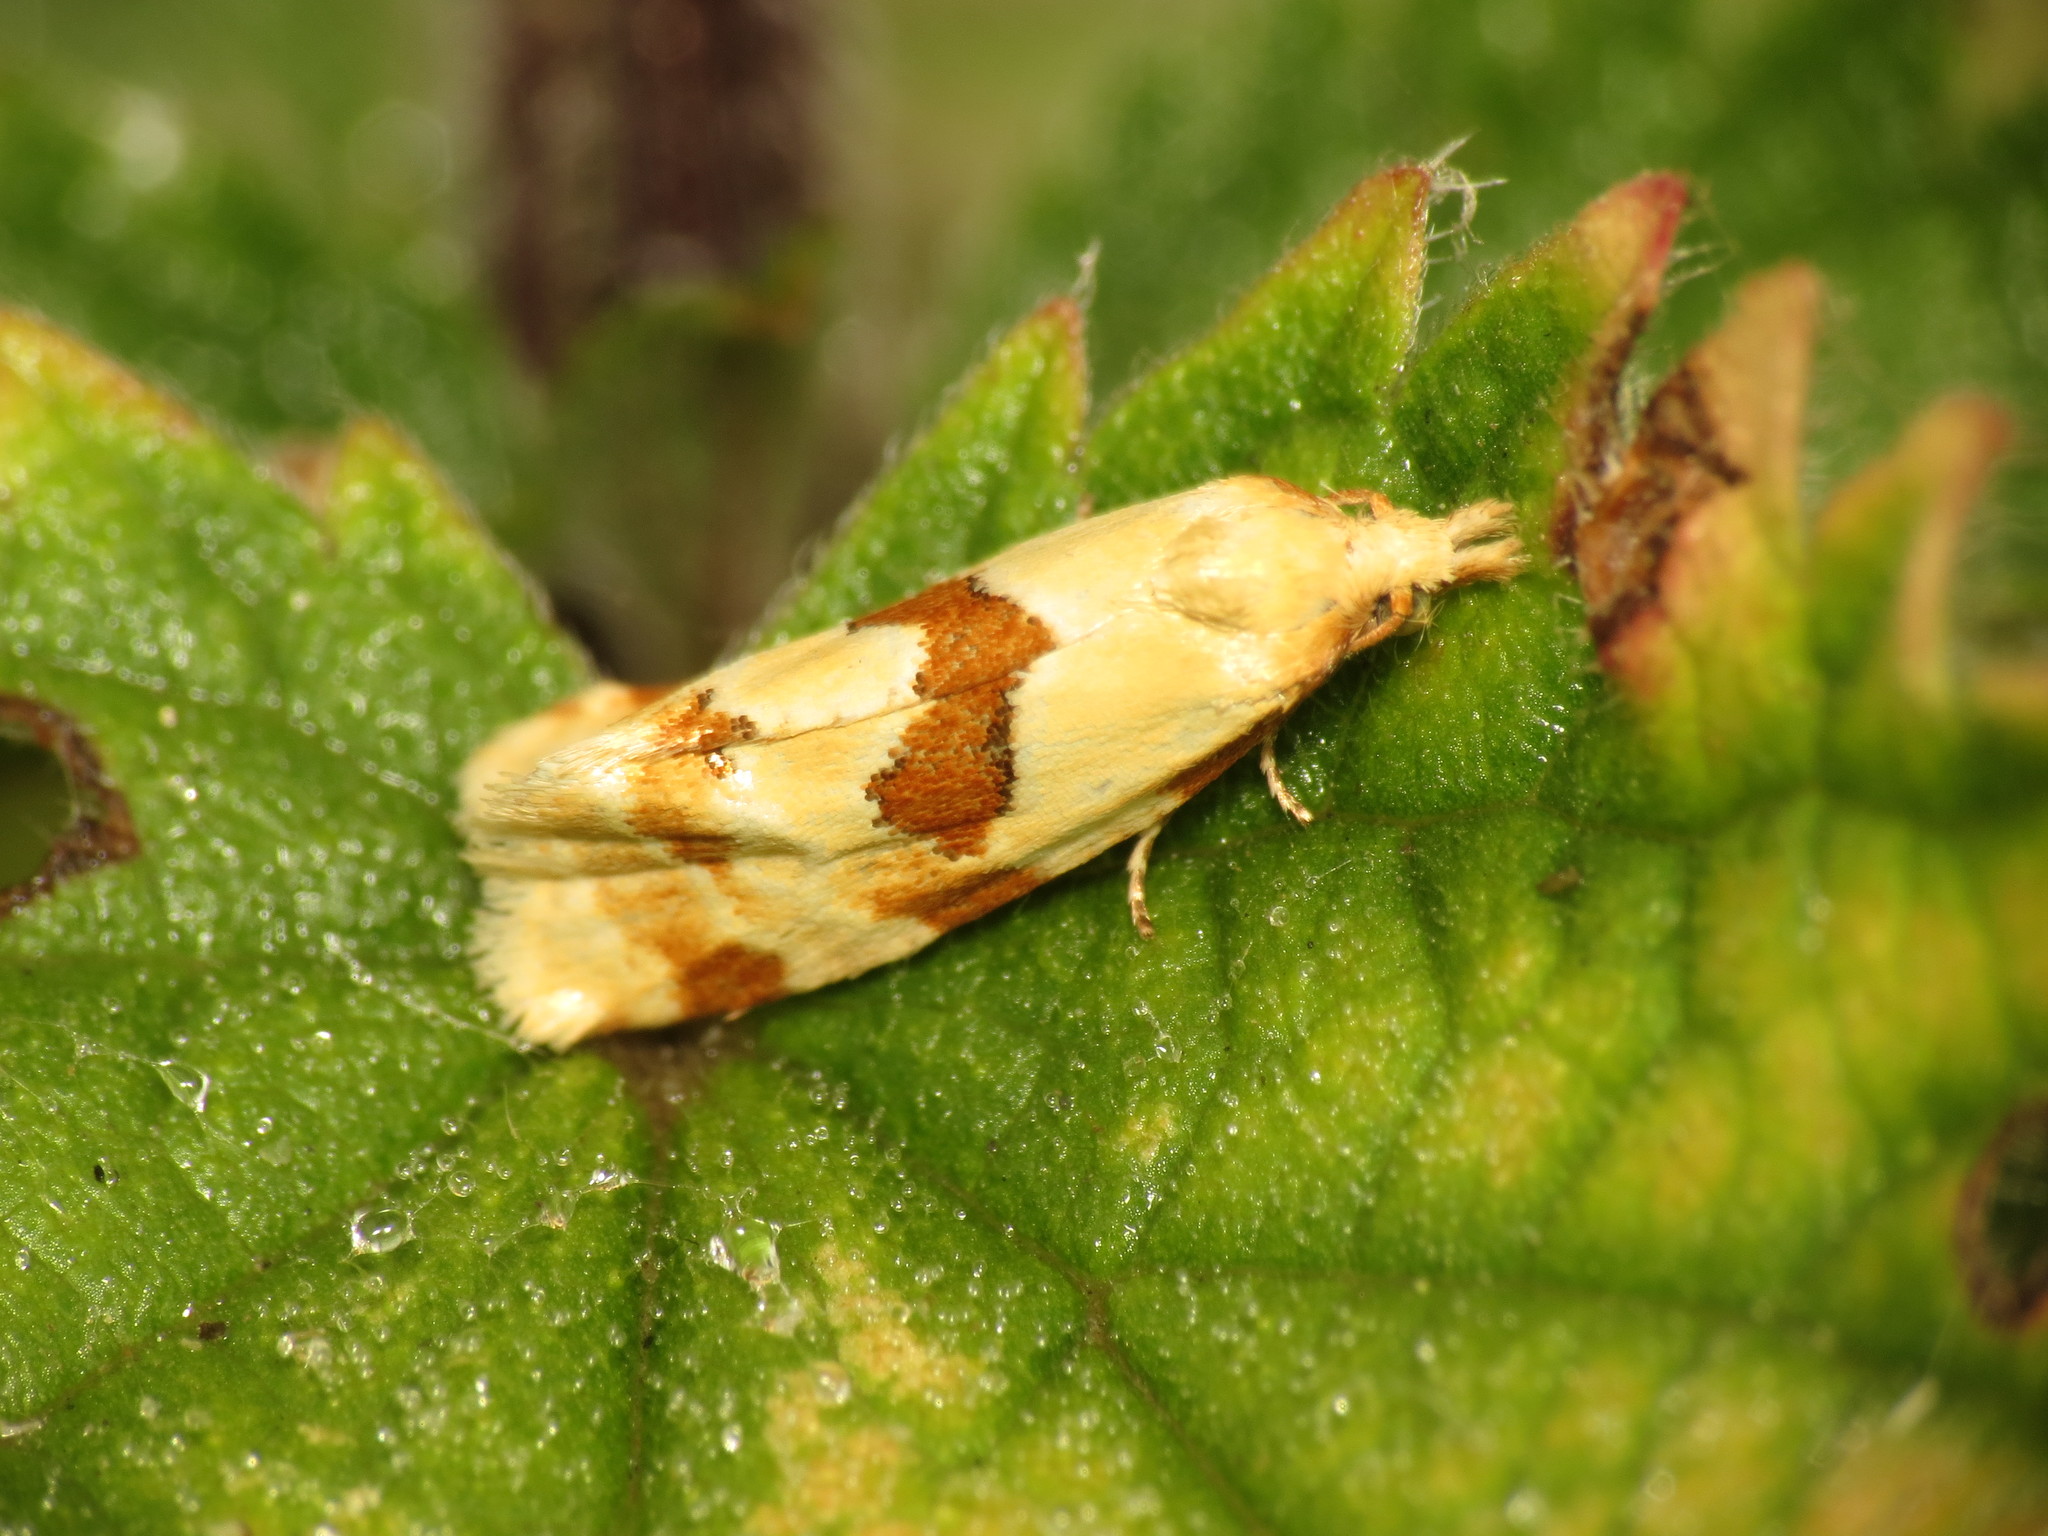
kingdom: Animalia
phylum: Arthropoda
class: Insecta
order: Lepidoptera
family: Tortricidae
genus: Aethes
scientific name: Aethes cnicana
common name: Thistle conch
